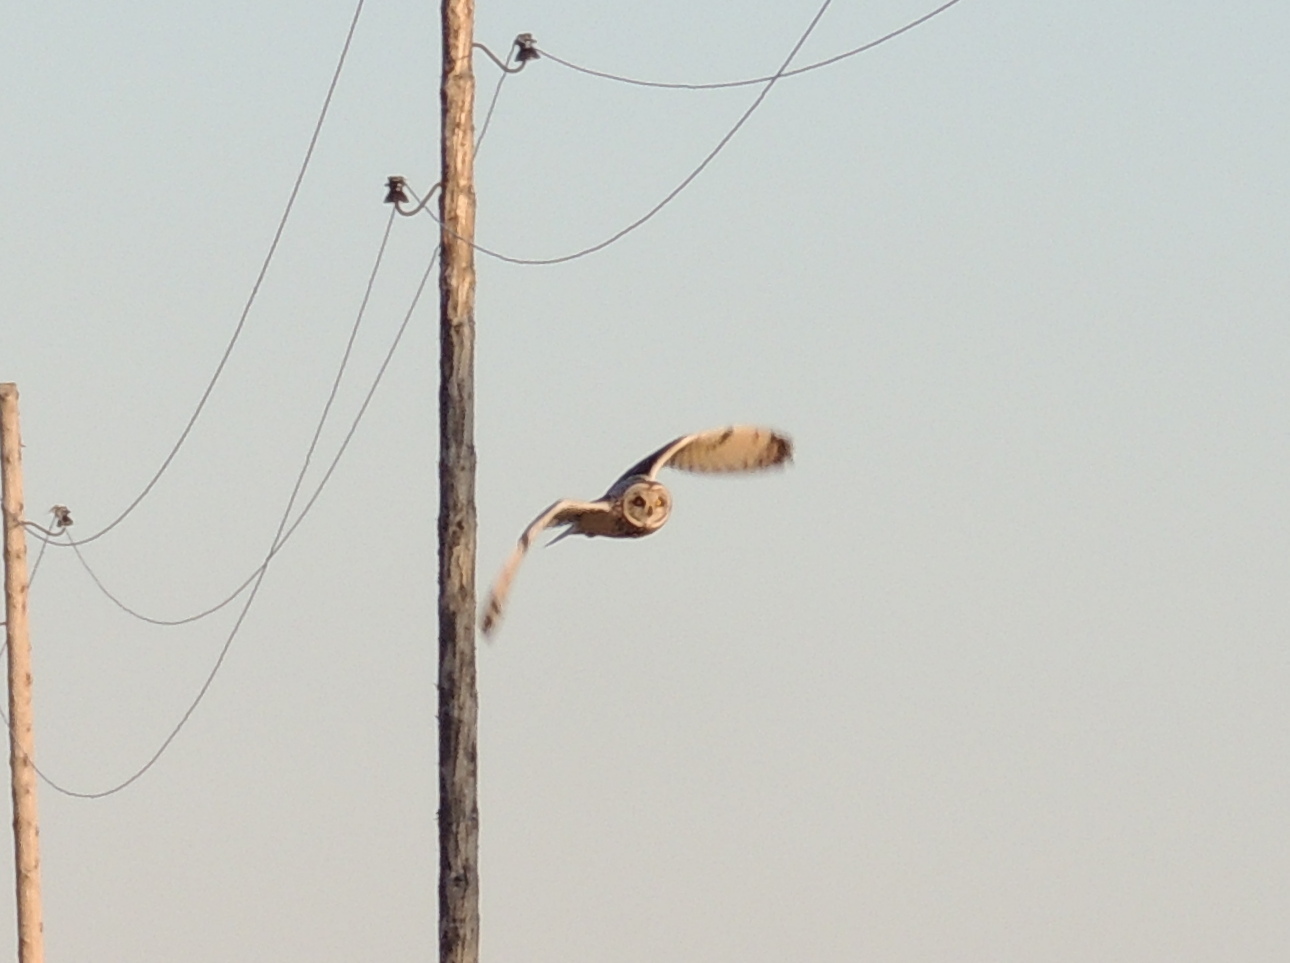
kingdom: Animalia
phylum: Chordata
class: Aves
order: Strigiformes
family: Strigidae
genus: Asio
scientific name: Asio flammeus
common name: Short-eared owl
